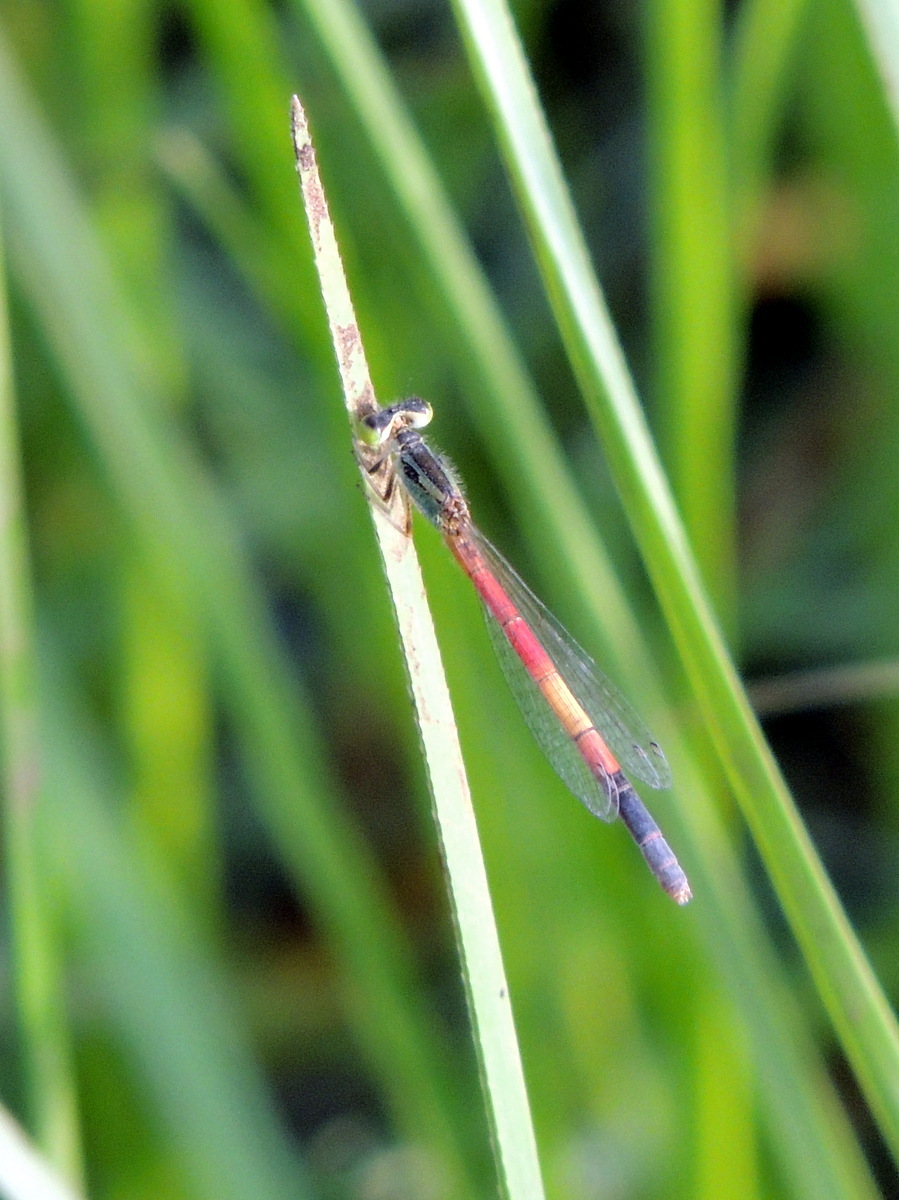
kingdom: Animalia
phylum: Arthropoda
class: Insecta
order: Odonata
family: Coenagrionidae
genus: Ischnura
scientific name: Ischnura nursei
